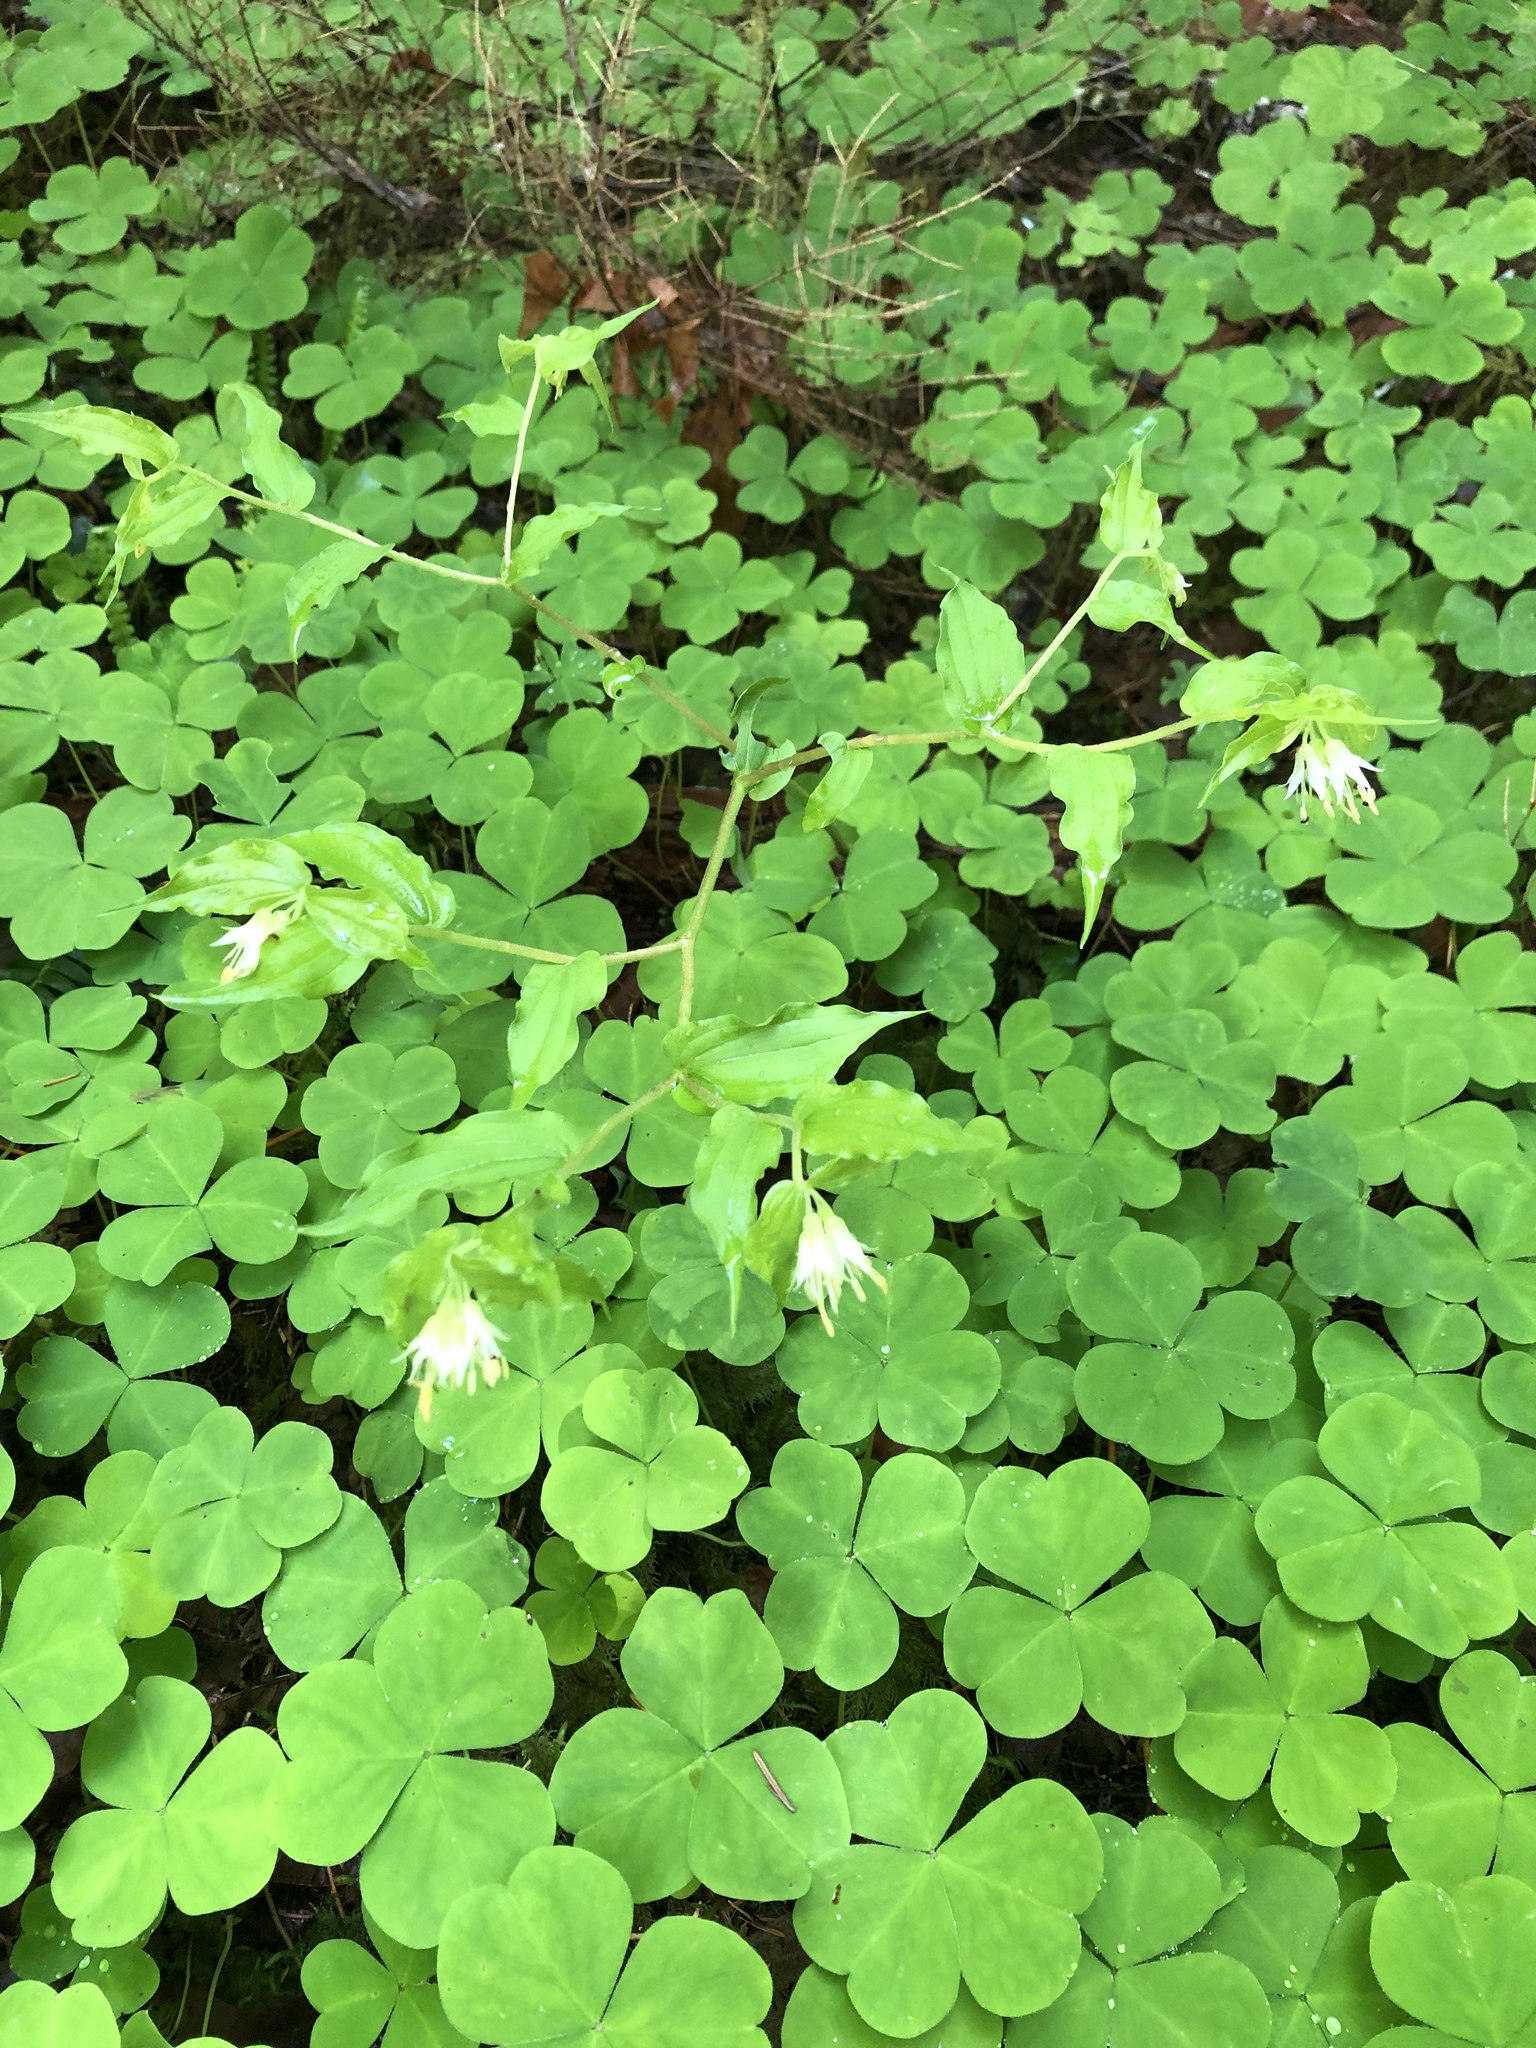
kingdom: Plantae
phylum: Tracheophyta
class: Liliopsida
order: Liliales
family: Liliaceae
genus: Prosartes
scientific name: Prosartes hookeri
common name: Fairy-bells
